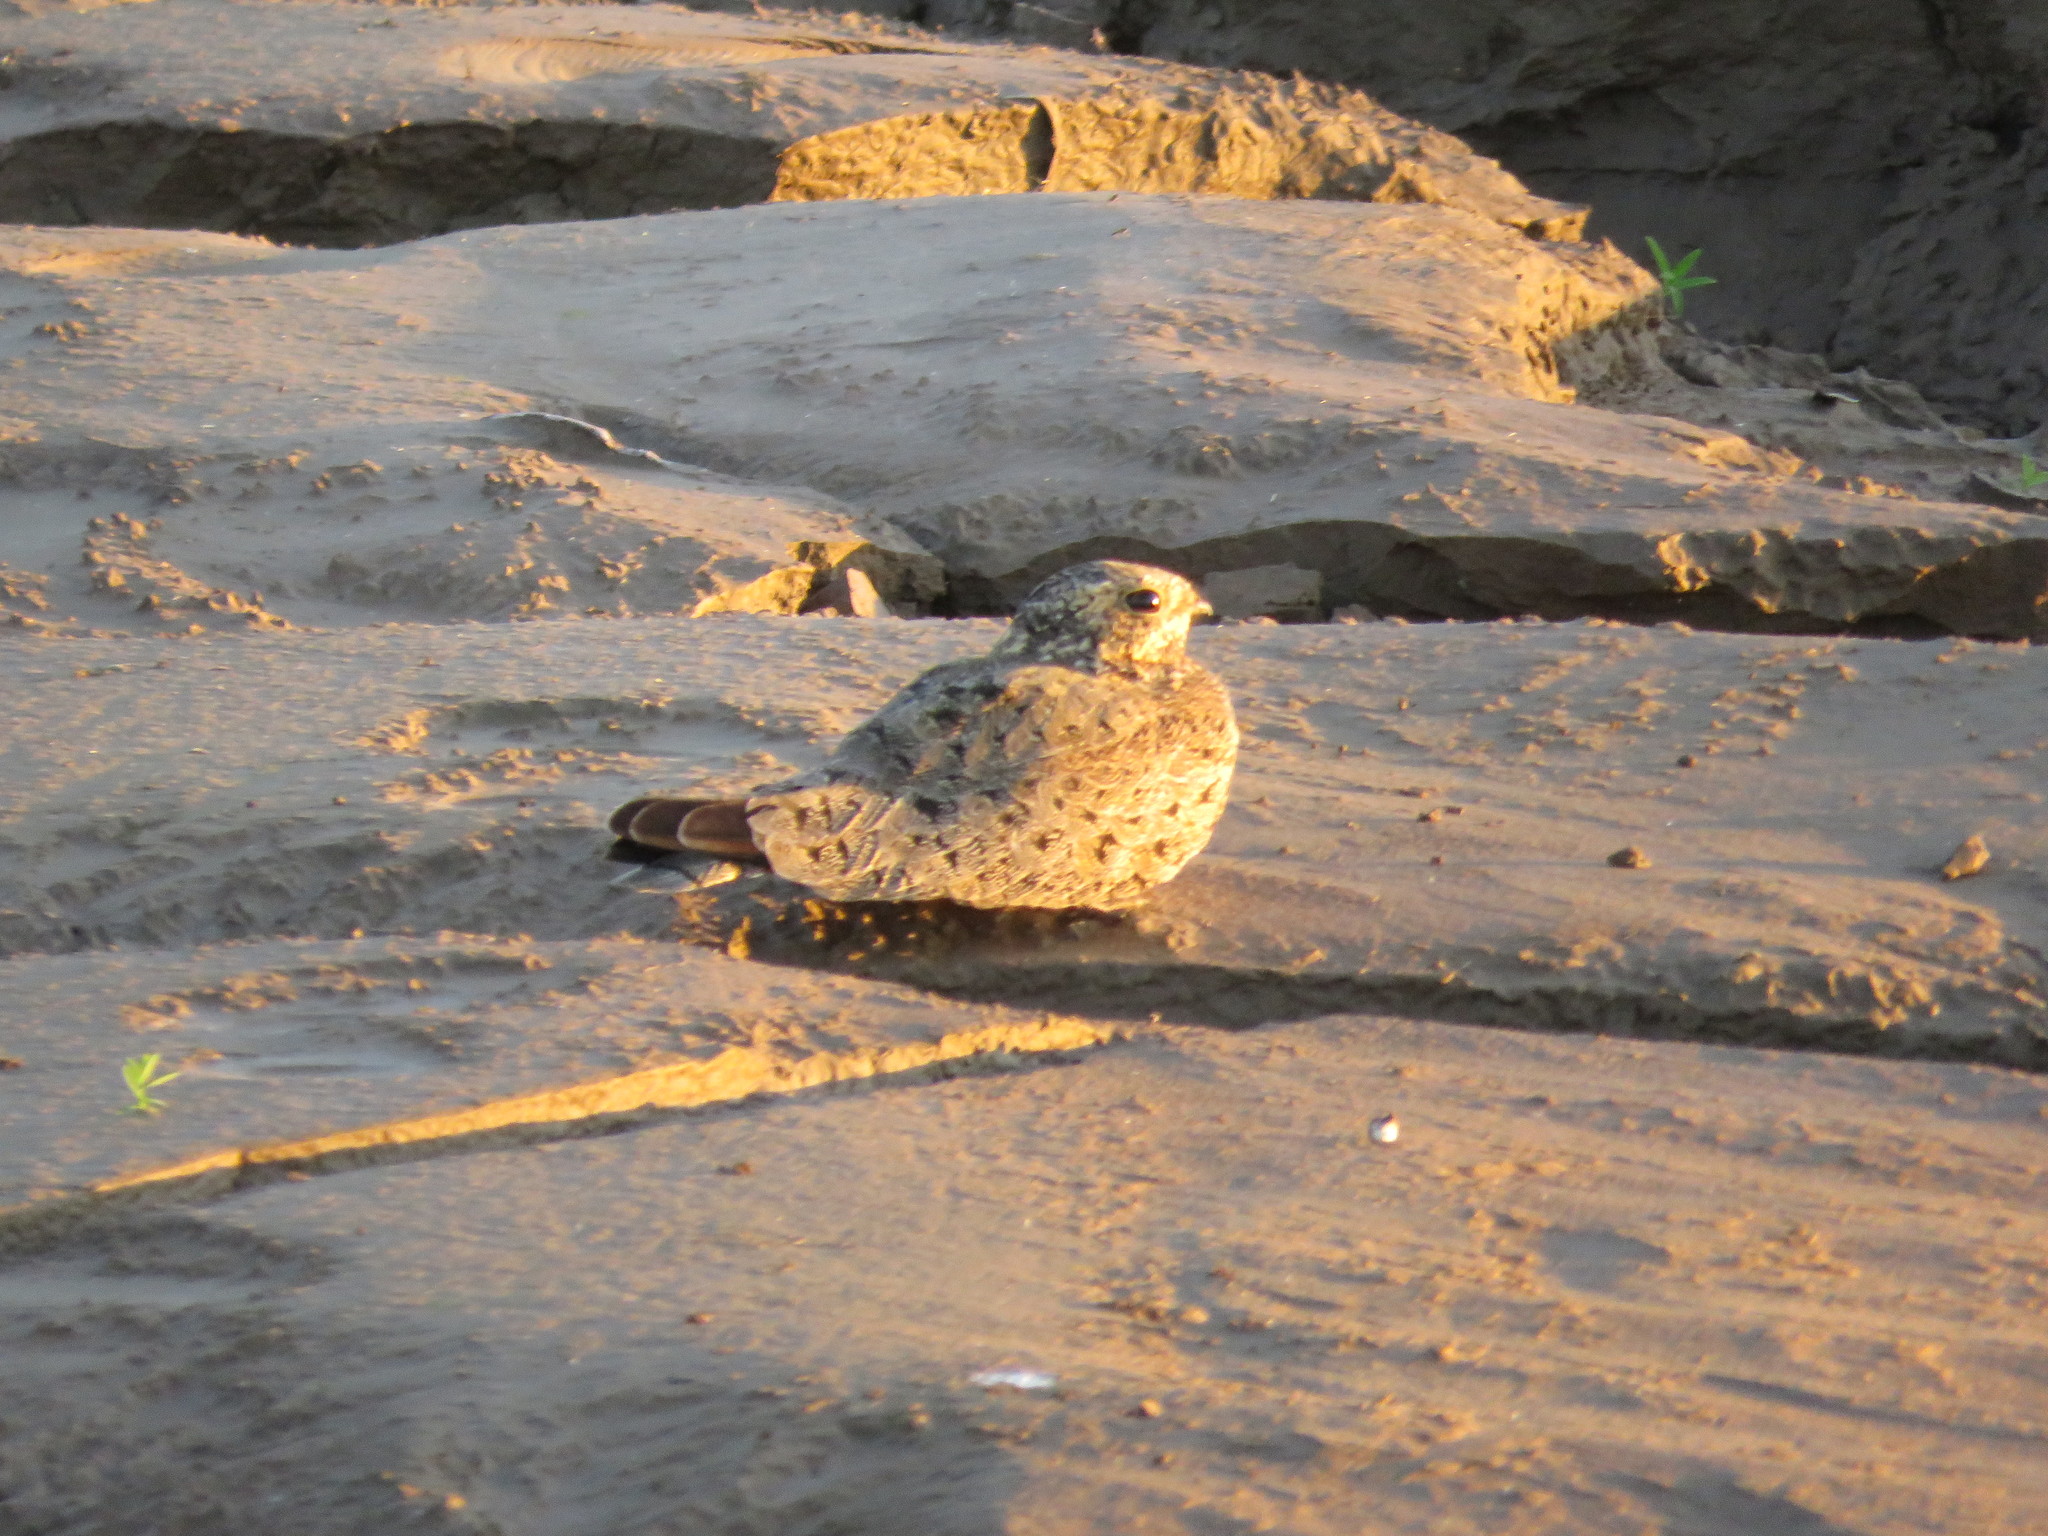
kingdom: Animalia
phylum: Chordata
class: Aves
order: Caprimulgiformes
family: Caprimulgidae
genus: Chordeiles
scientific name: Chordeiles nacunda
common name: Nacunda nighthawk
